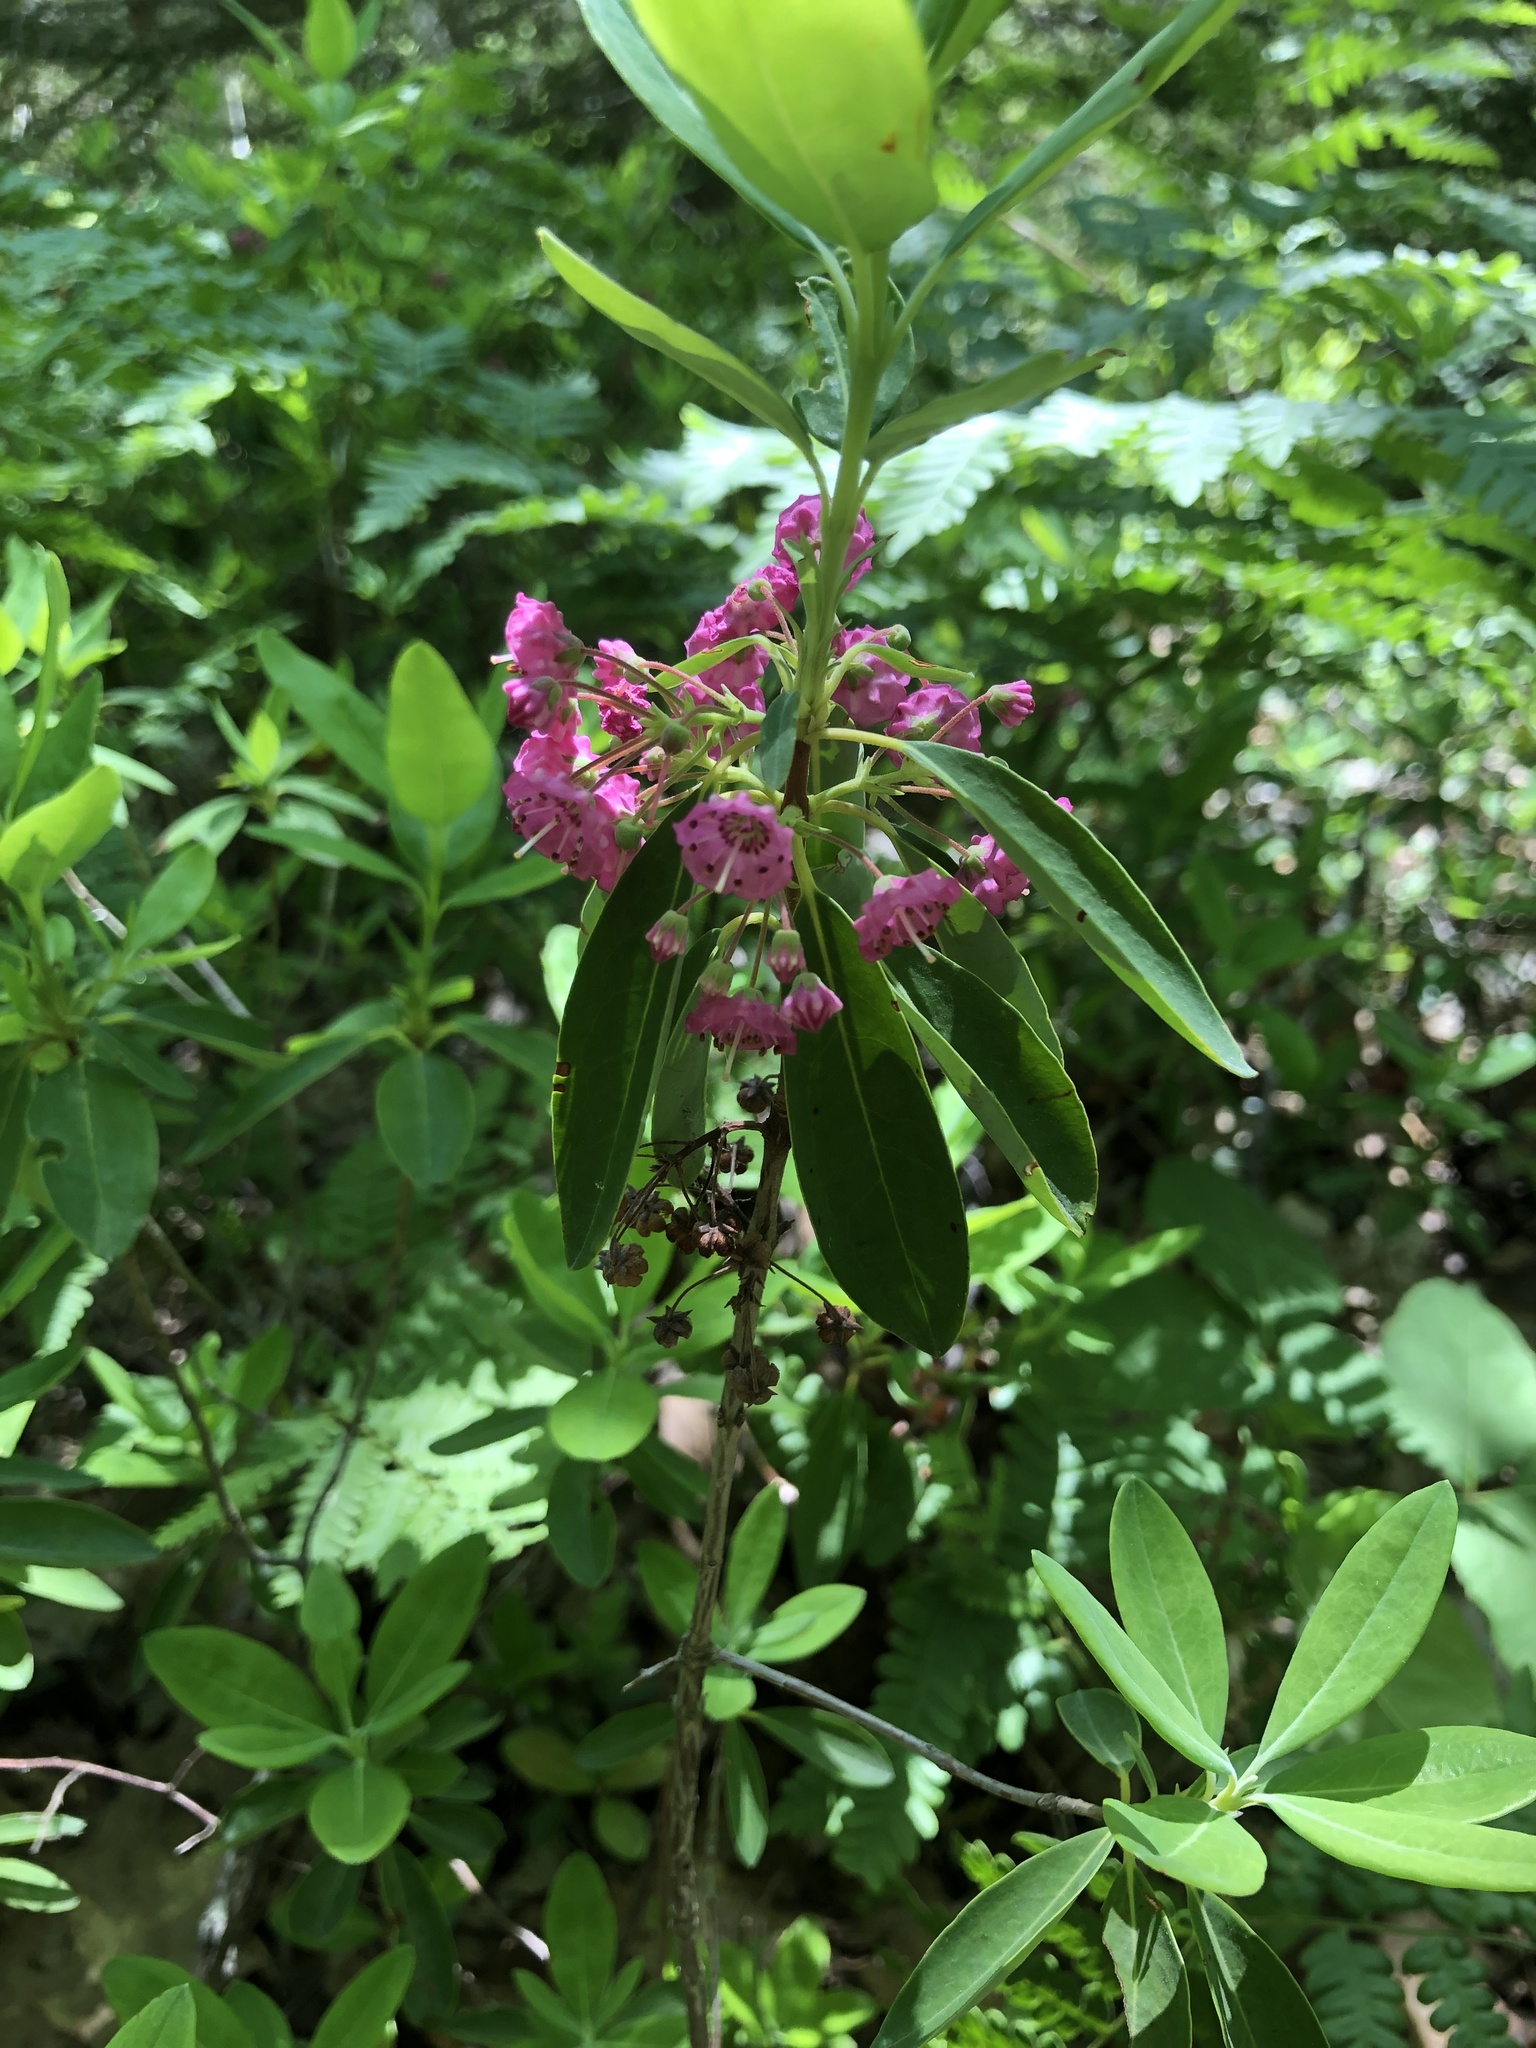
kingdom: Plantae
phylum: Tracheophyta
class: Magnoliopsida
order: Ericales
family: Ericaceae
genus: Kalmia
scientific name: Kalmia angustifolia
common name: Sheep-laurel
